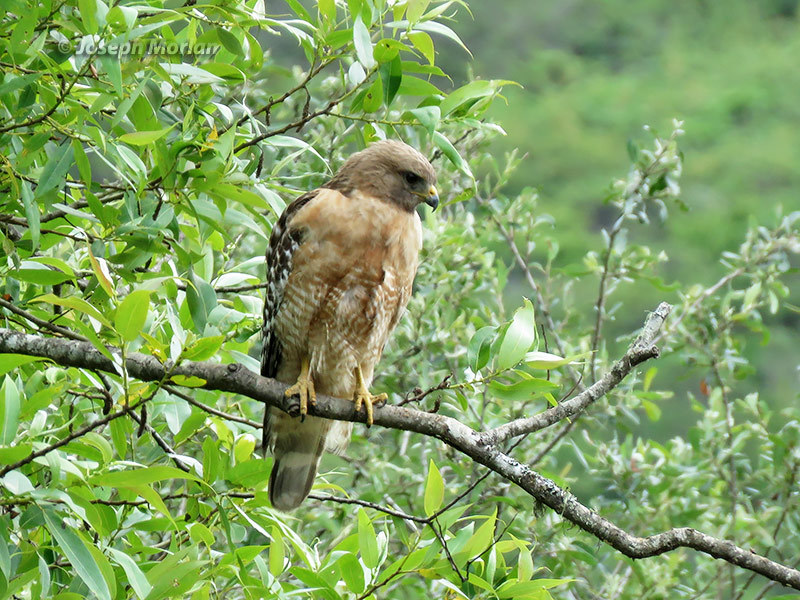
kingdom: Animalia
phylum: Chordata
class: Aves
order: Accipitriformes
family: Accipitridae
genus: Buteo
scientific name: Buteo lineatus
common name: Red-shouldered hawk
